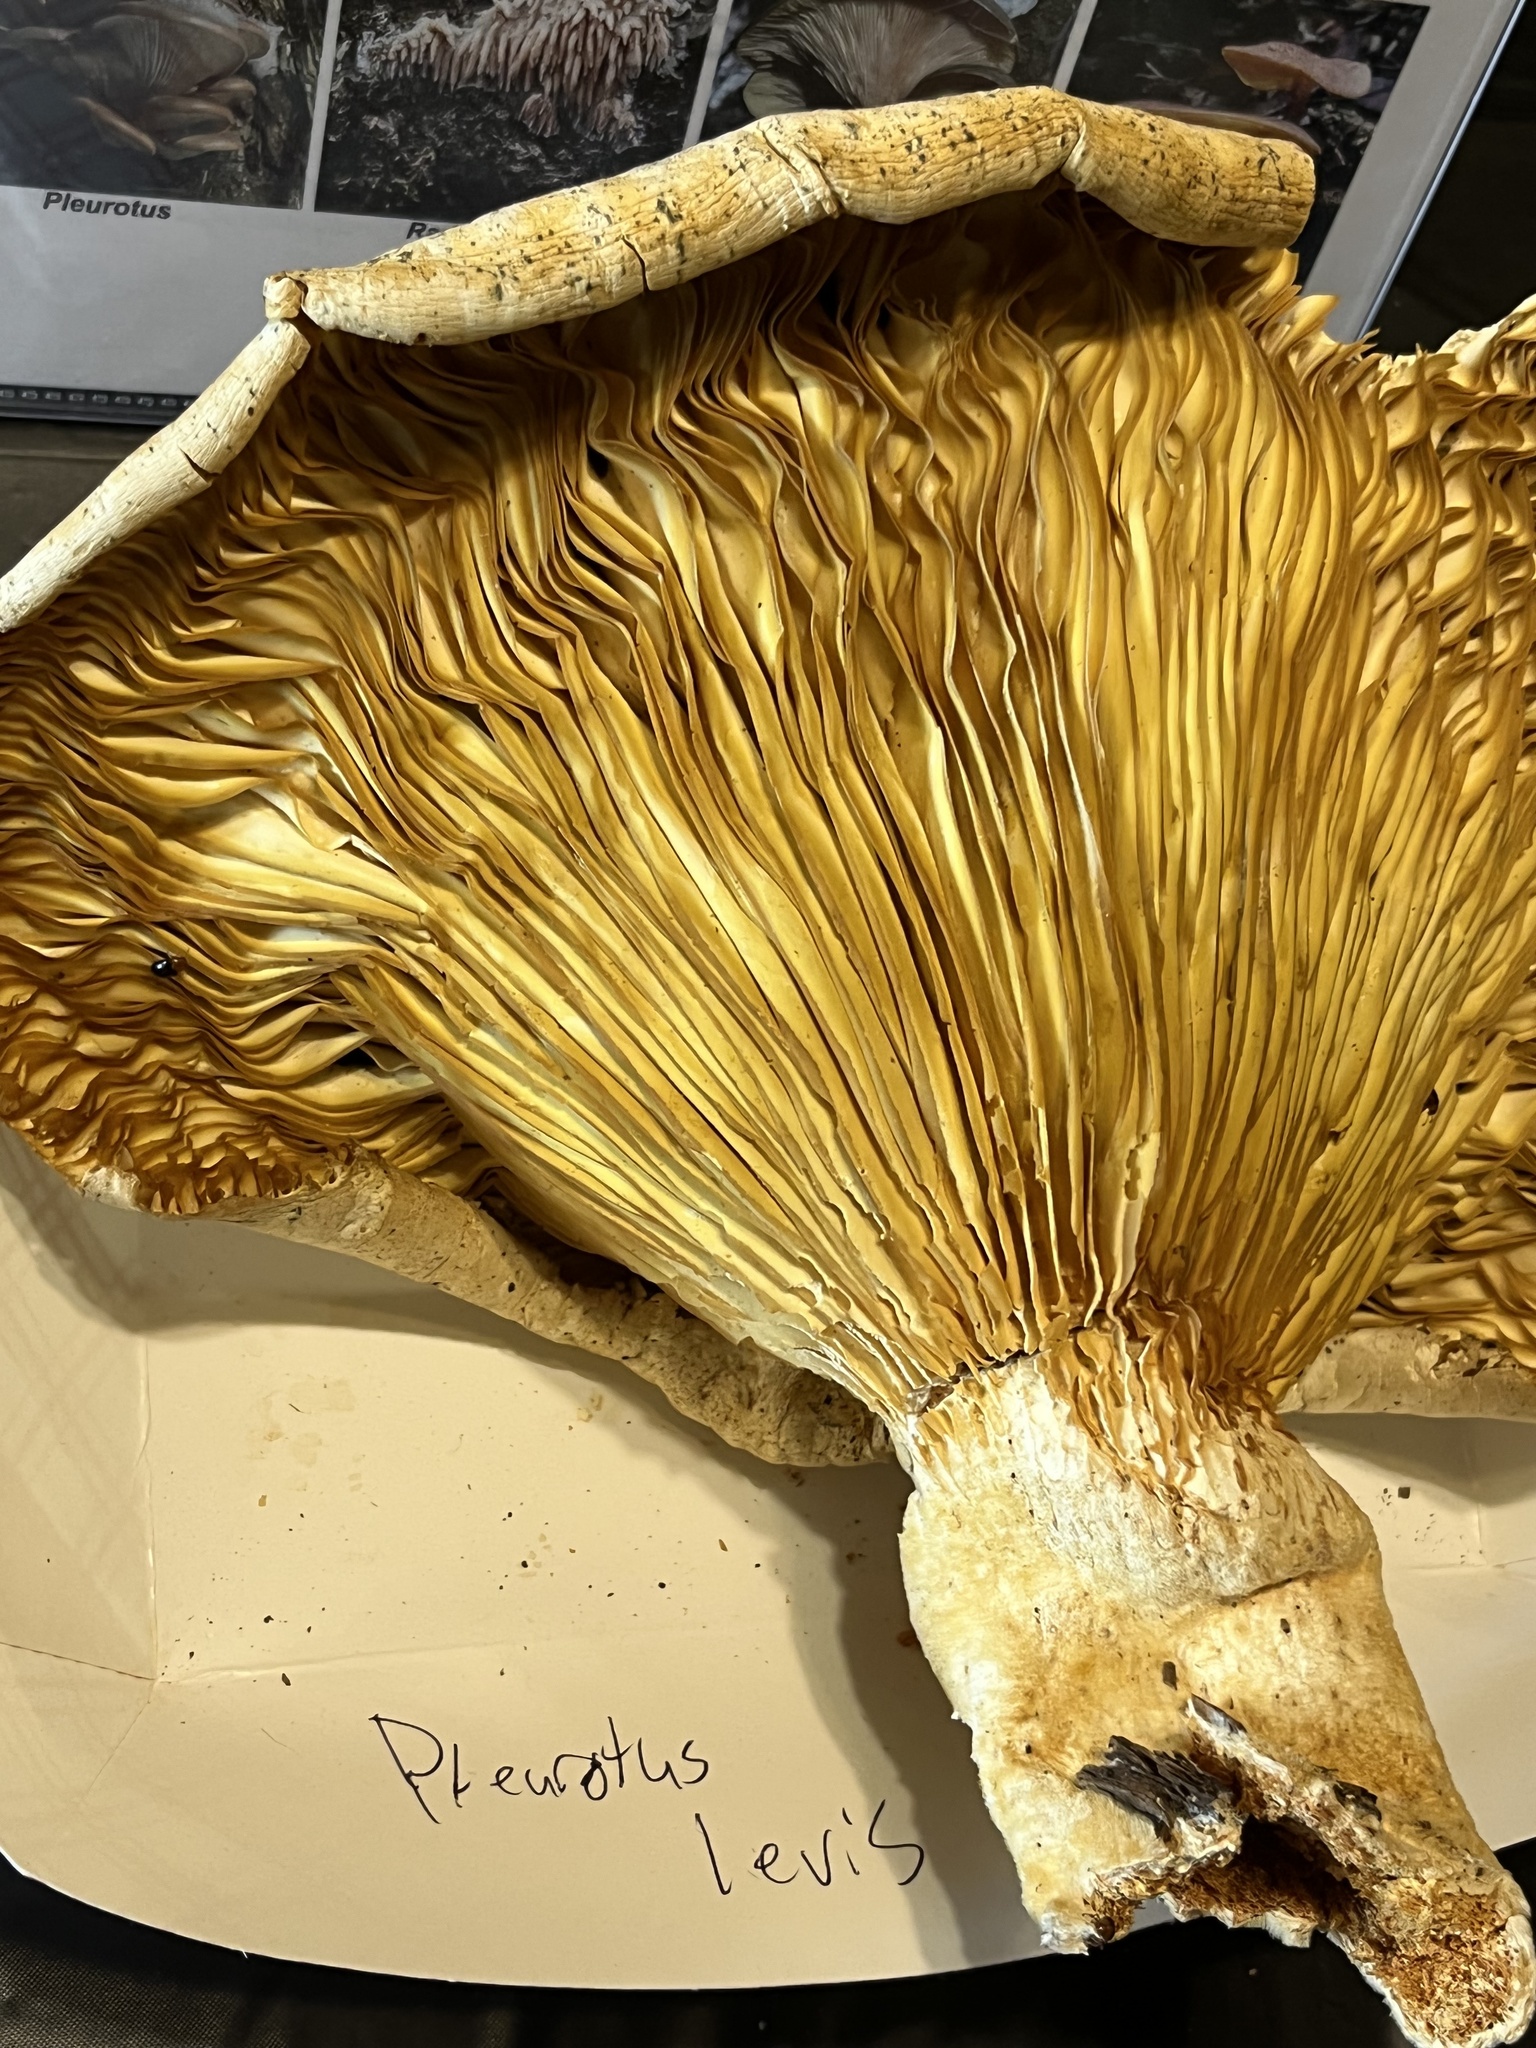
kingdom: Fungi
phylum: Basidiomycota
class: Agaricomycetes
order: Polyporales
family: Polyporaceae
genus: Lentinus
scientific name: Lentinus levis
